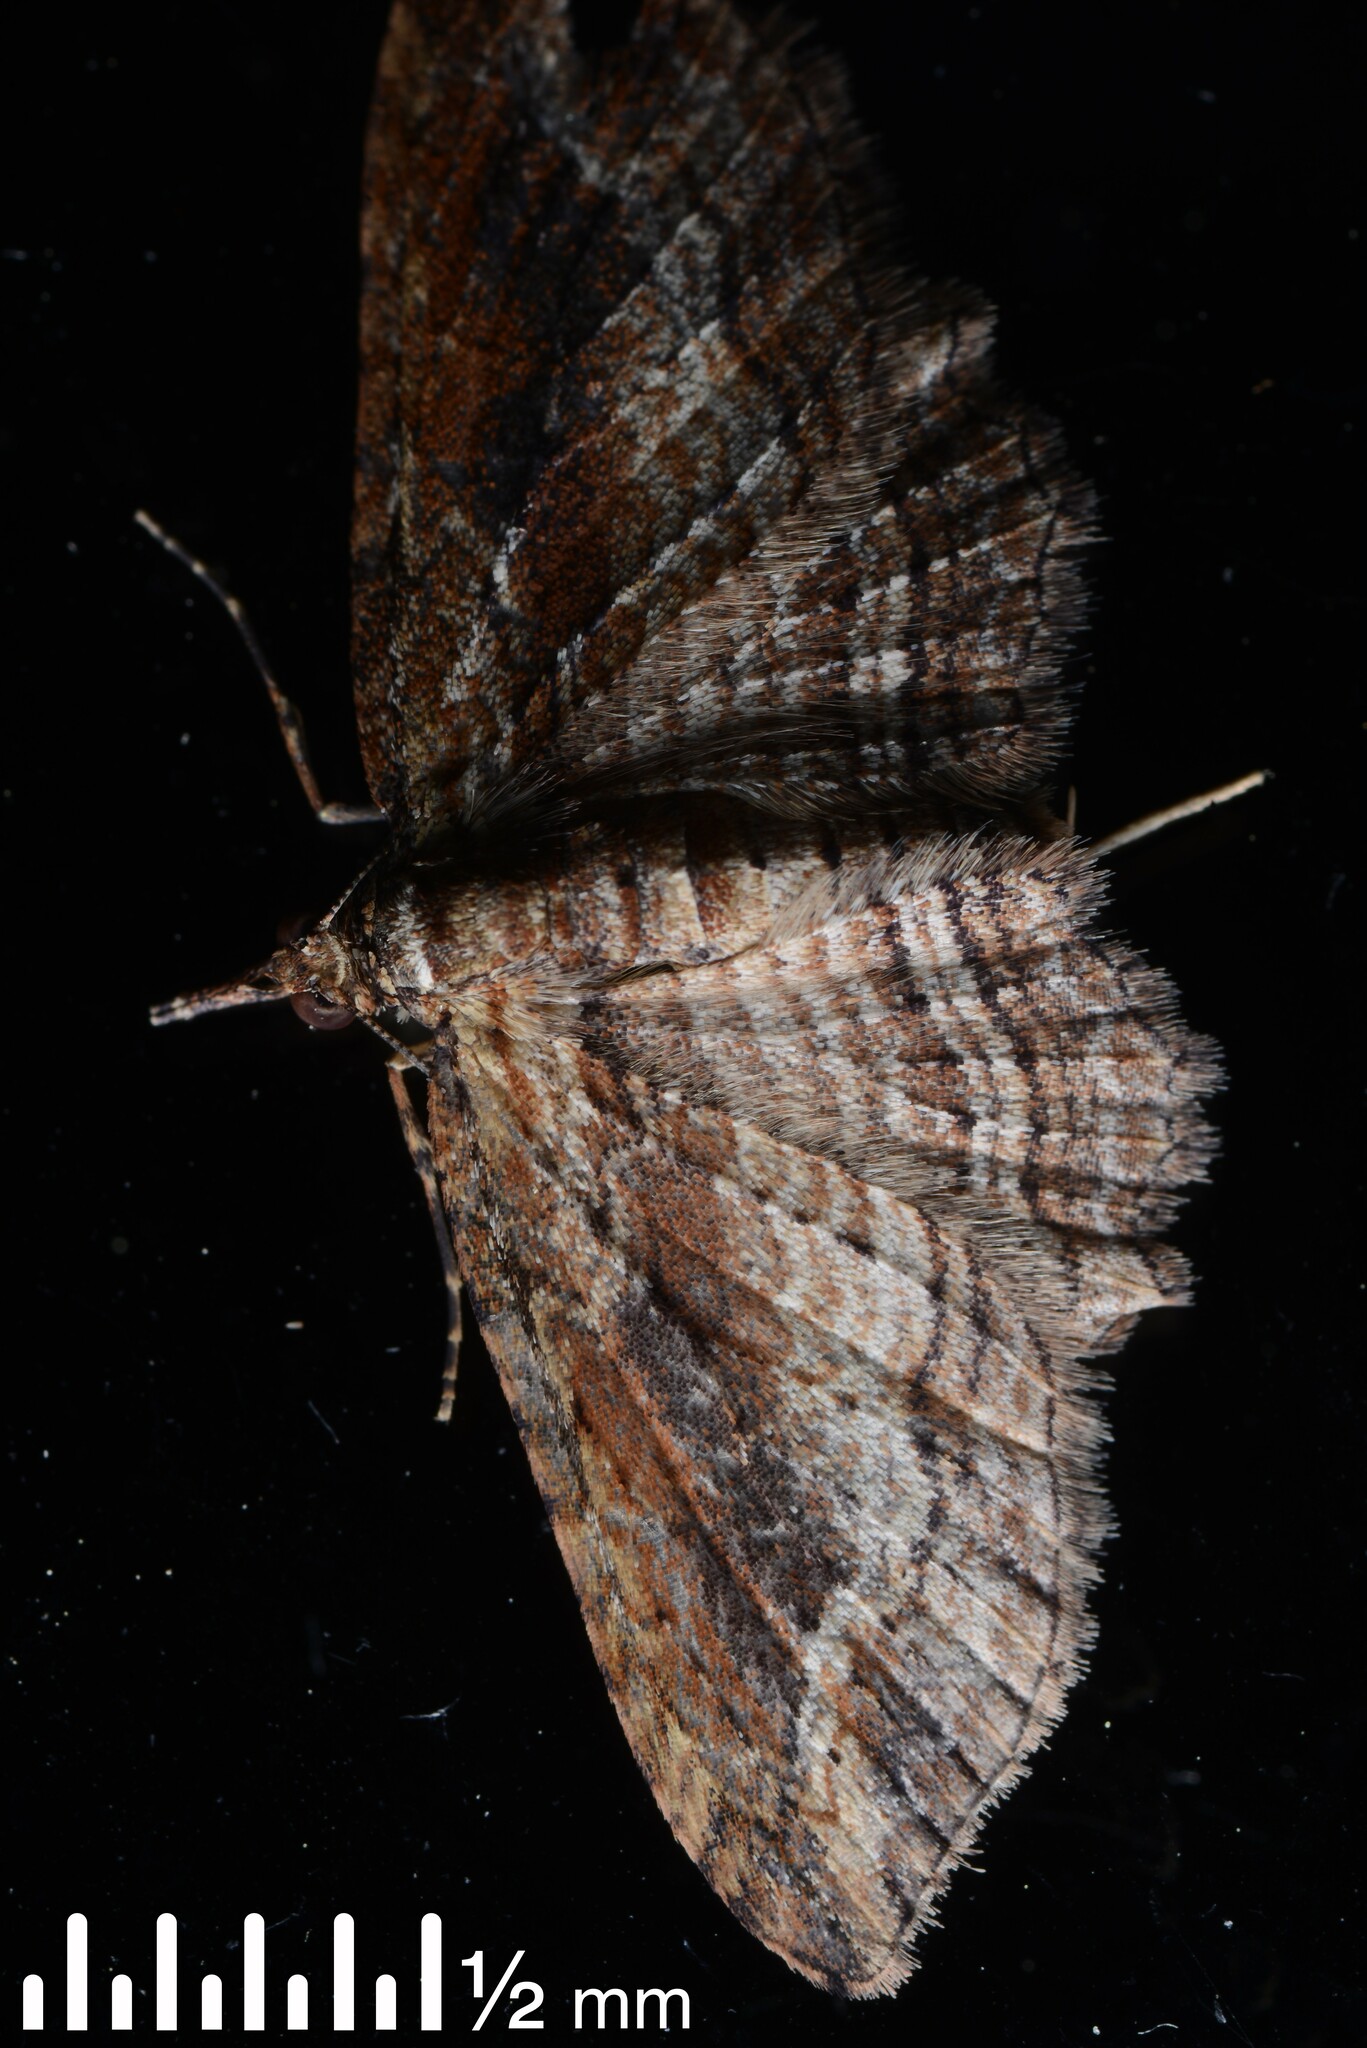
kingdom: Animalia
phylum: Arthropoda
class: Insecta
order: Lepidoptera
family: Geometridae
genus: Chloroclystis
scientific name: Chloroclystis filata
